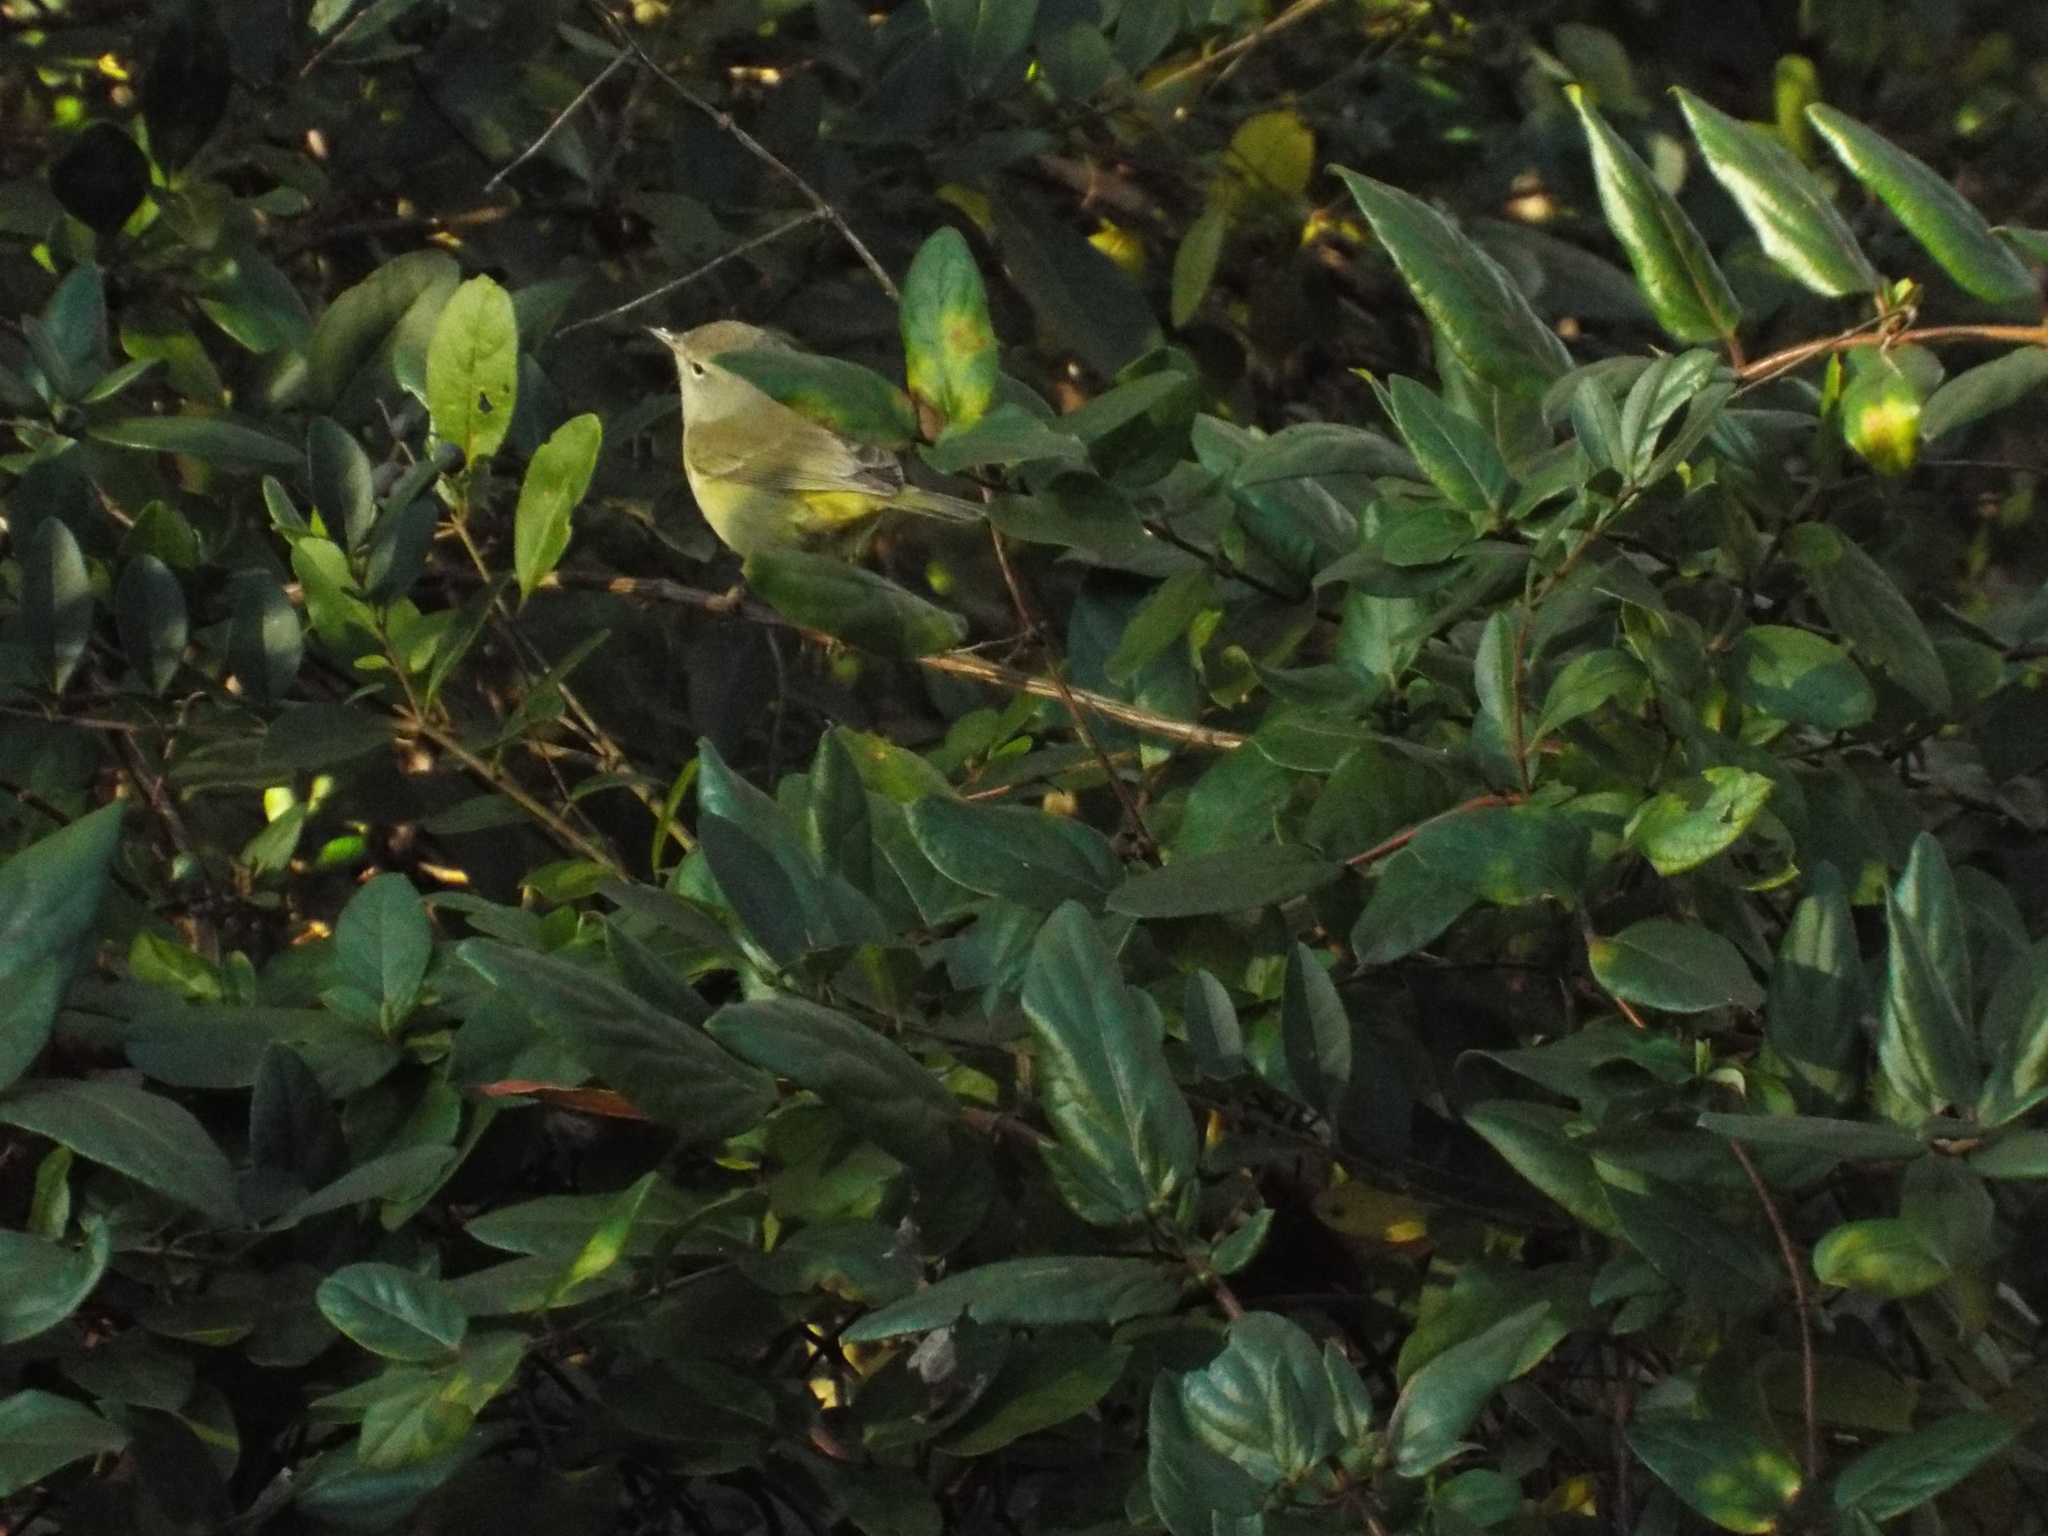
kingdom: Animalia
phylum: Chordata
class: Aves
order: Passeriformes
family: Parulidae
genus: Leiothlypis
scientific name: Leiothlypis celata
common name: Orange-crowned warbler
